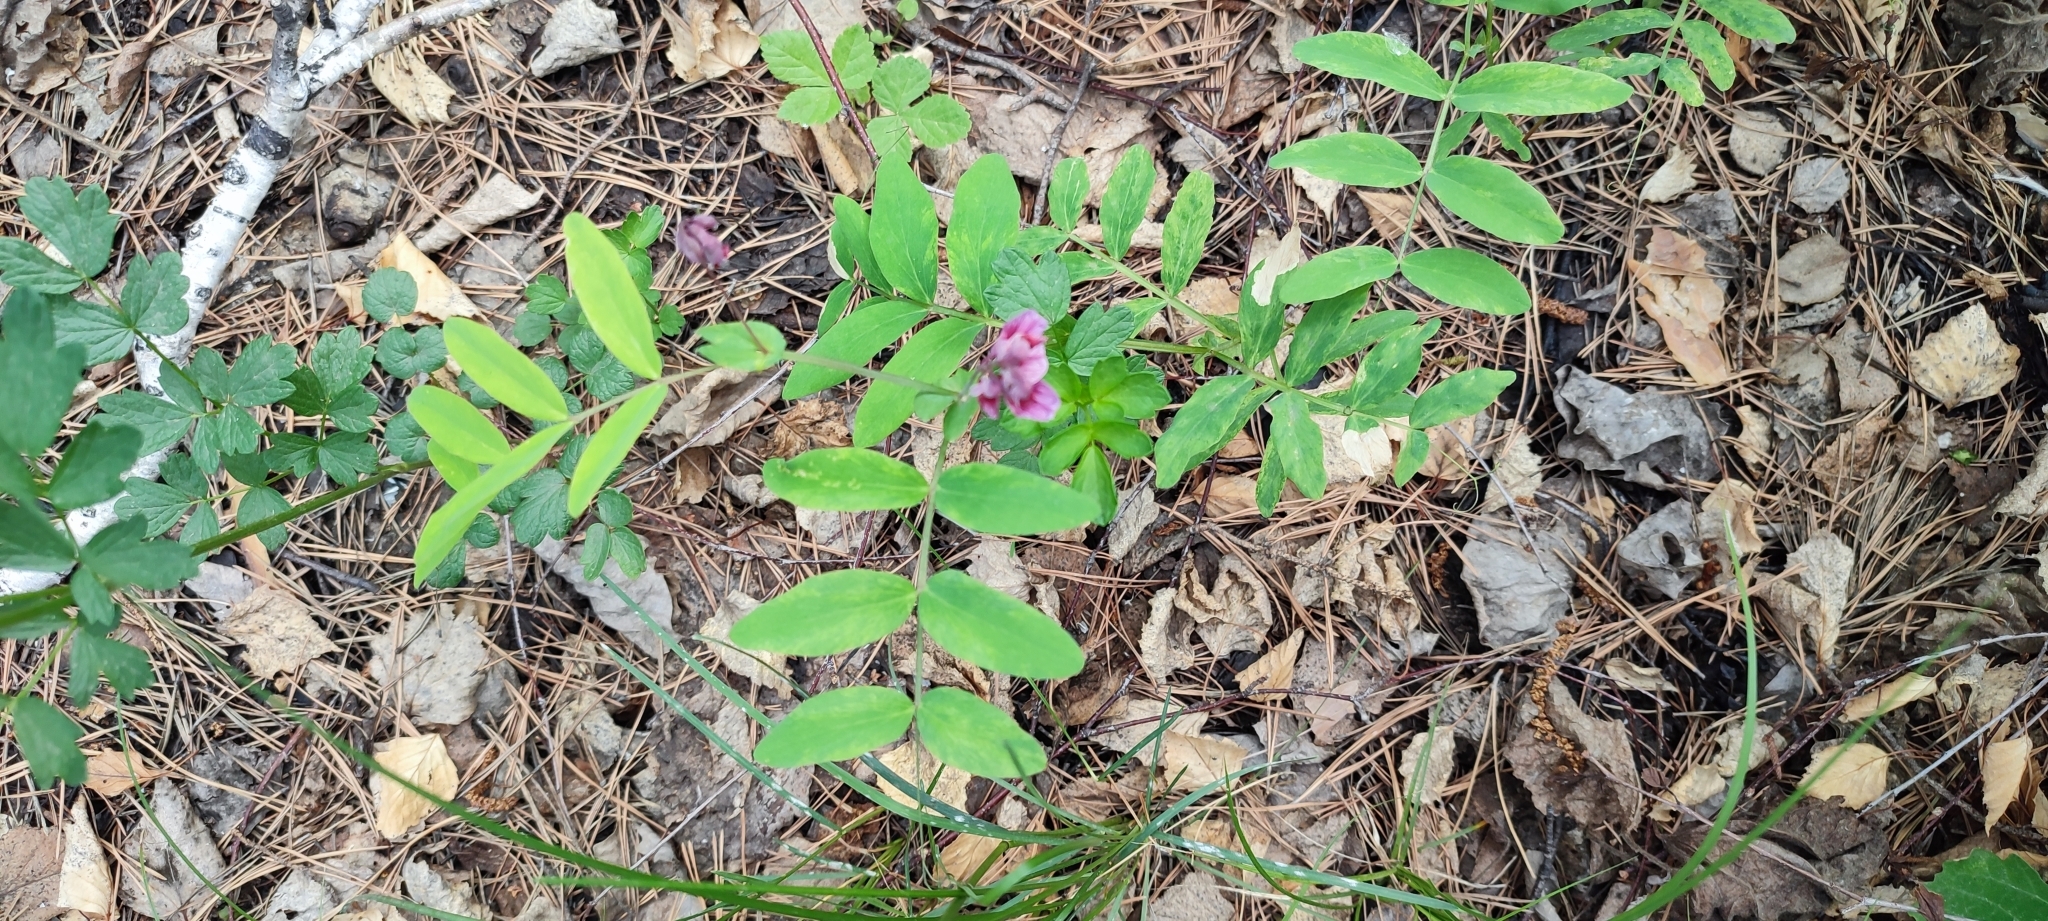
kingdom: Plantae
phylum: Tracheophyta
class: Magnoliopsida
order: Fabales
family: Fabaceae
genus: Lathyrus
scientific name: Lathyrus pisiformis
